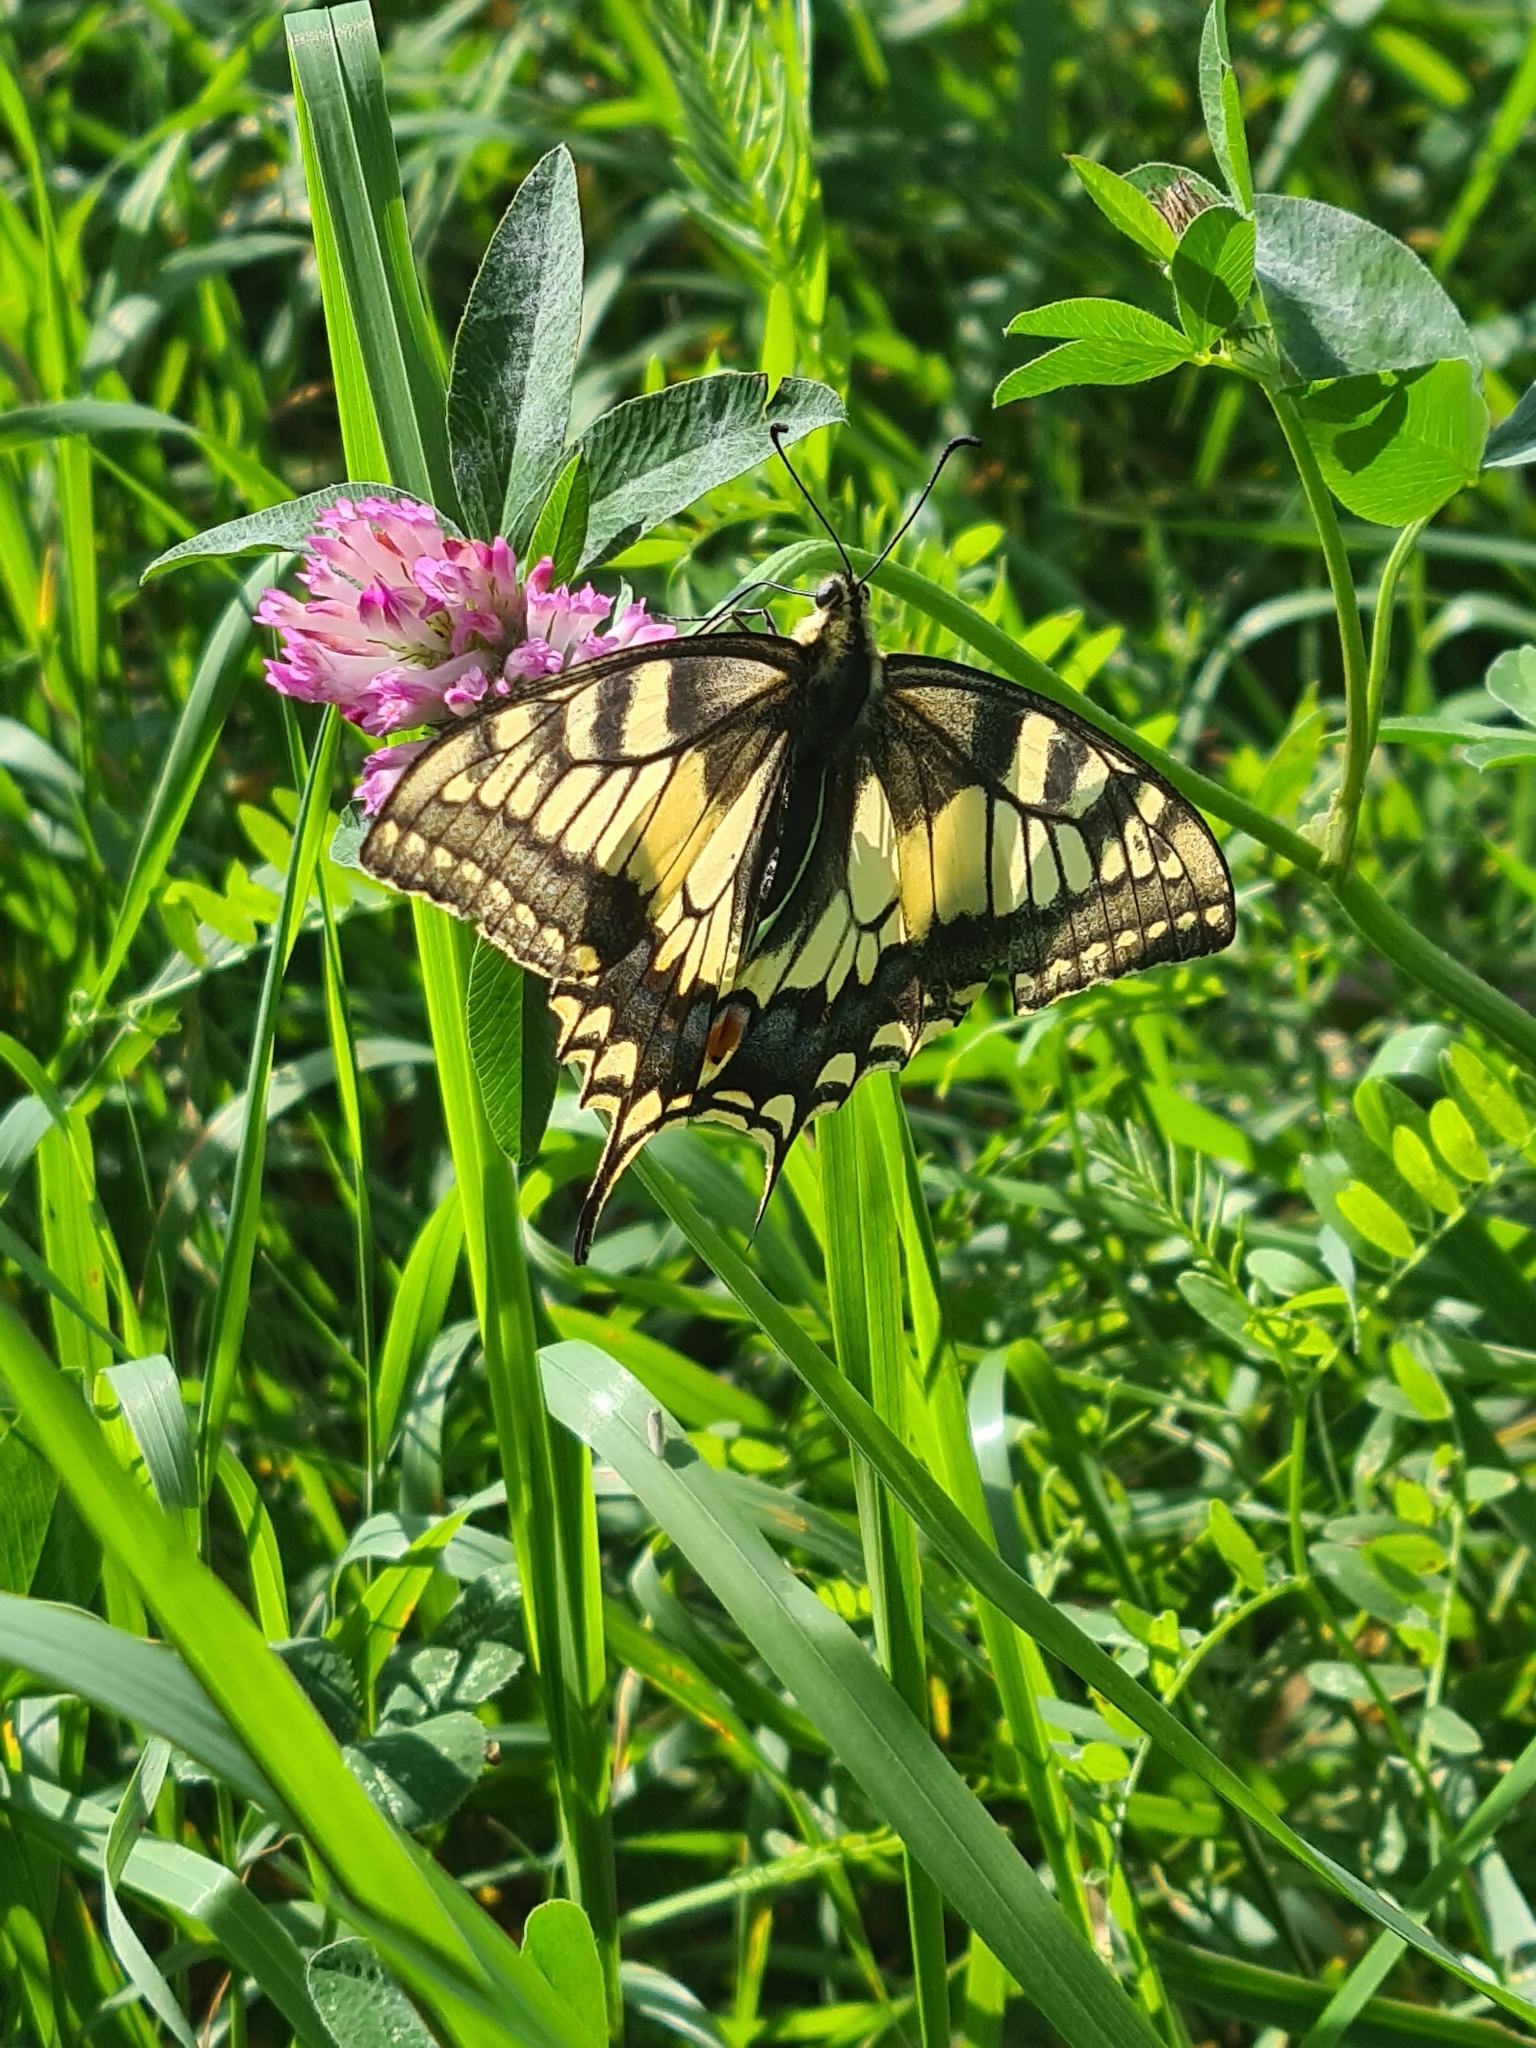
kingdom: Animalia
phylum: Arthropoda
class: Insecta
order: Lepidoptera
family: Papilionidae
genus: Papilio
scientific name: Papilio machaon
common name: Swallowtail
